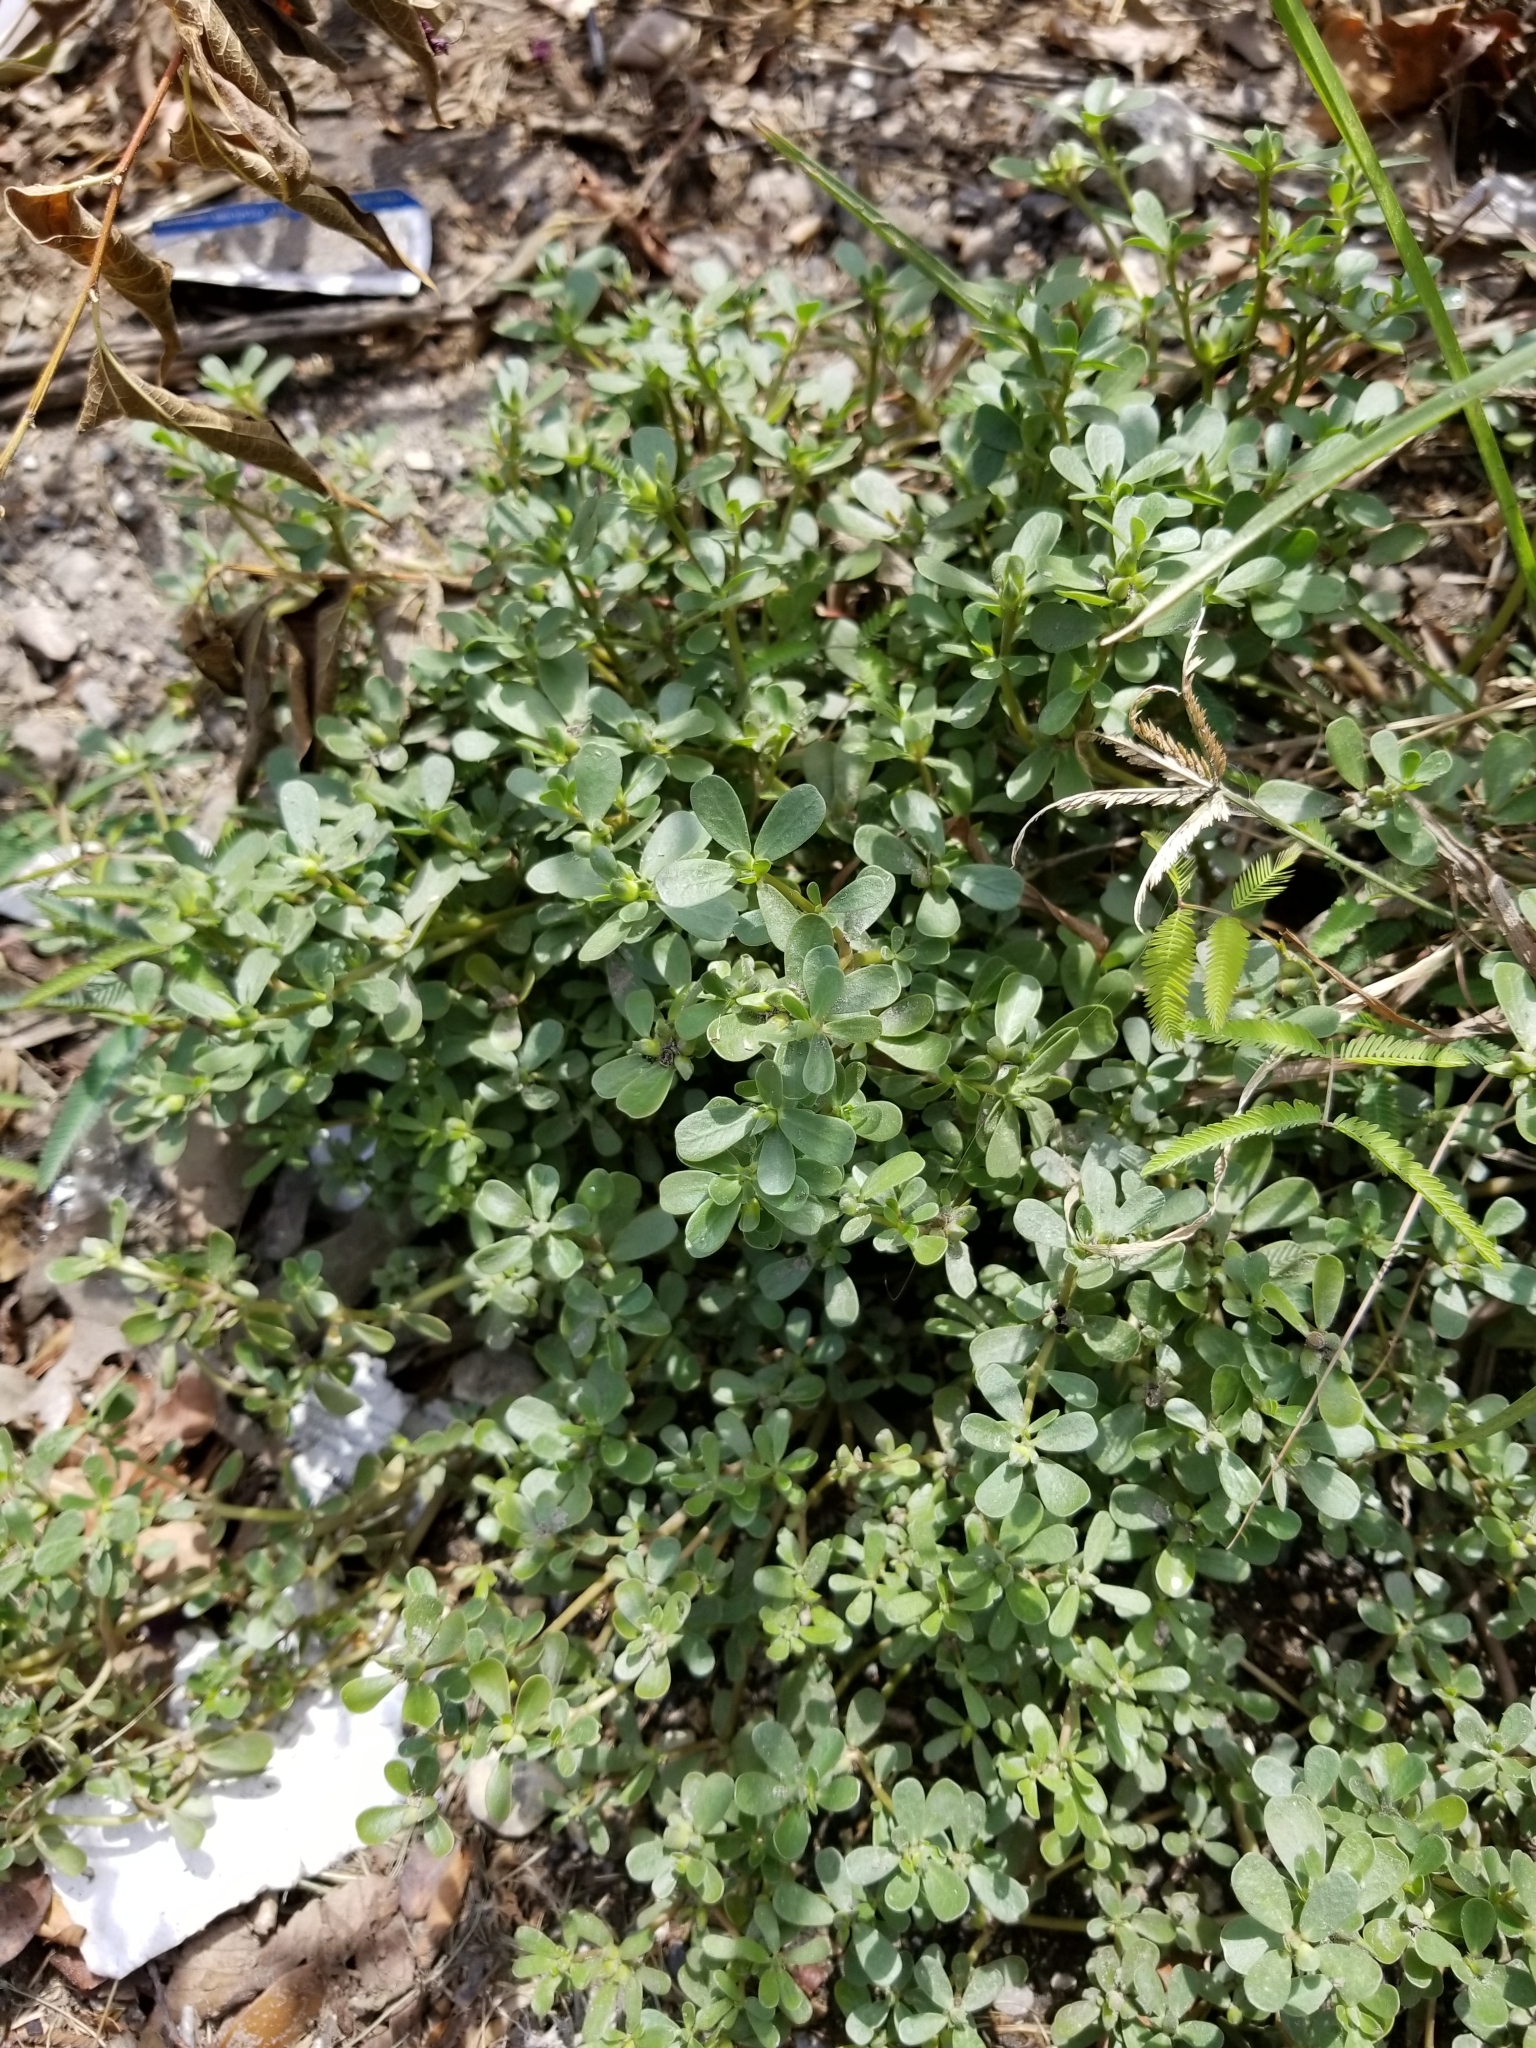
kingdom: Plantae
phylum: Tracheophyta
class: Magnoliopsida
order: Caryophyllales
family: Portulacaceae
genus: Portulaca
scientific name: Portulaca oleracea
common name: Common purslane
